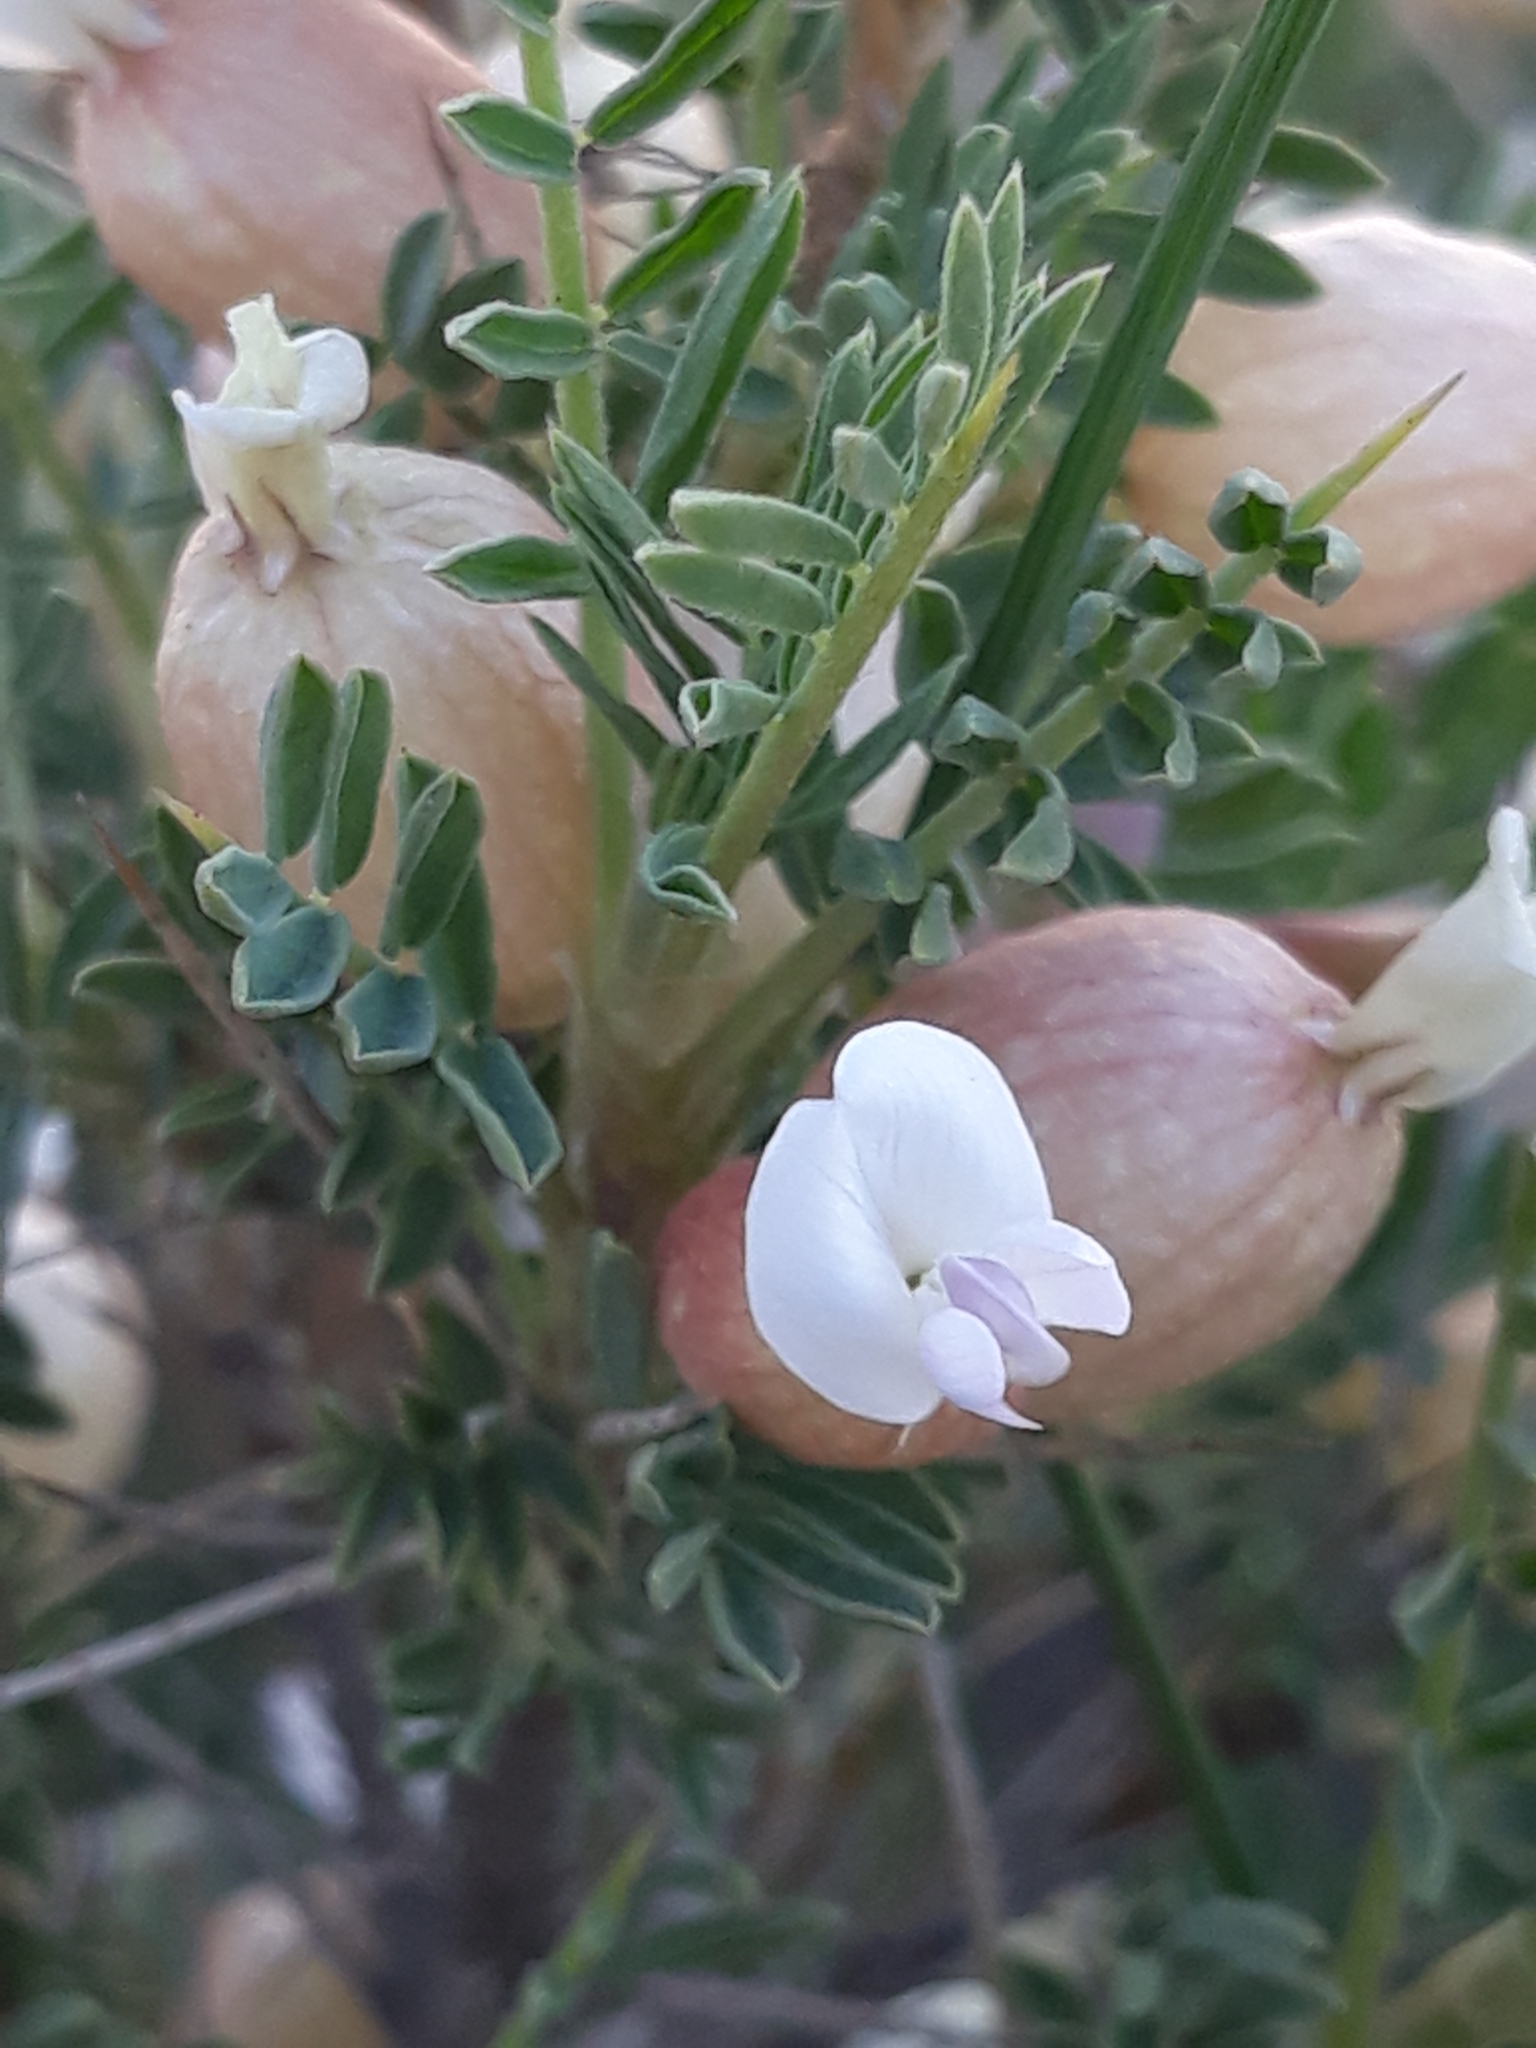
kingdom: Plantae
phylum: Tracheophyta
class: Magnoliopsida
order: Fabales
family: Fabaceae
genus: Astragalus
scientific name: Astragalus armatus
